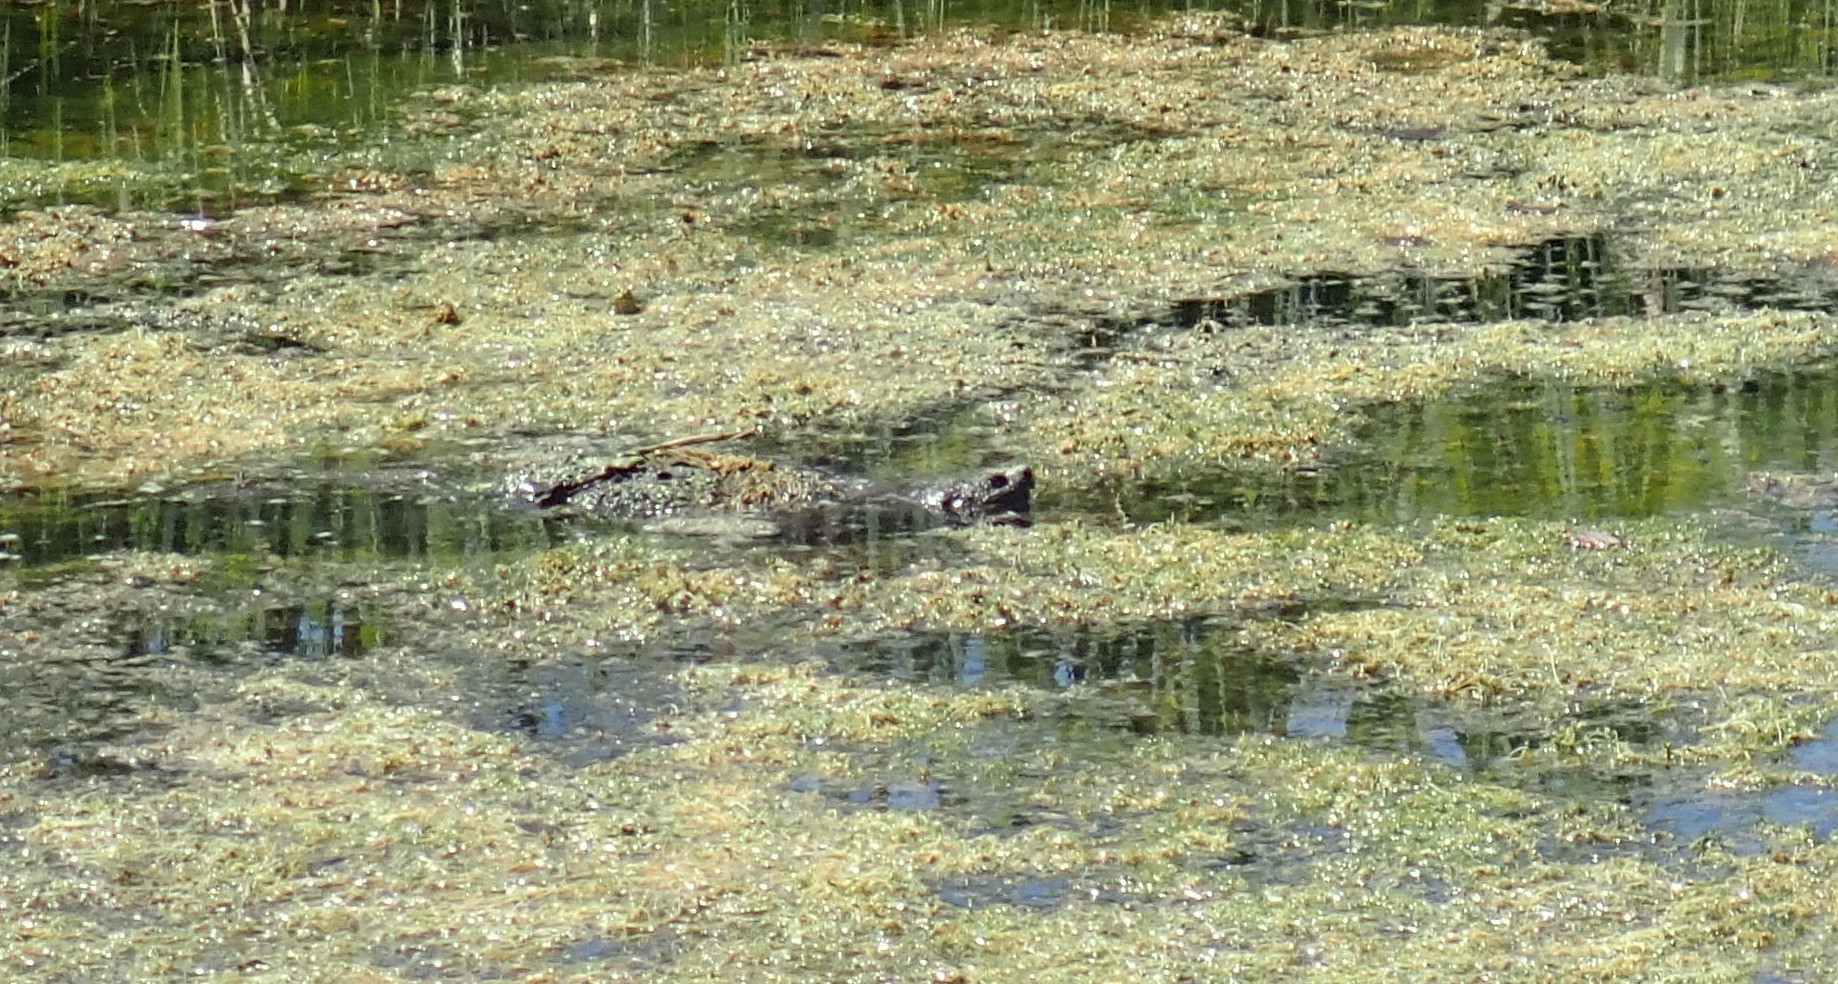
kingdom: Animalia
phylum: Chordata
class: Testudines
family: Chelydridae
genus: Chelydra
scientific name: Chelydra serpentina
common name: Common snapping turtle
